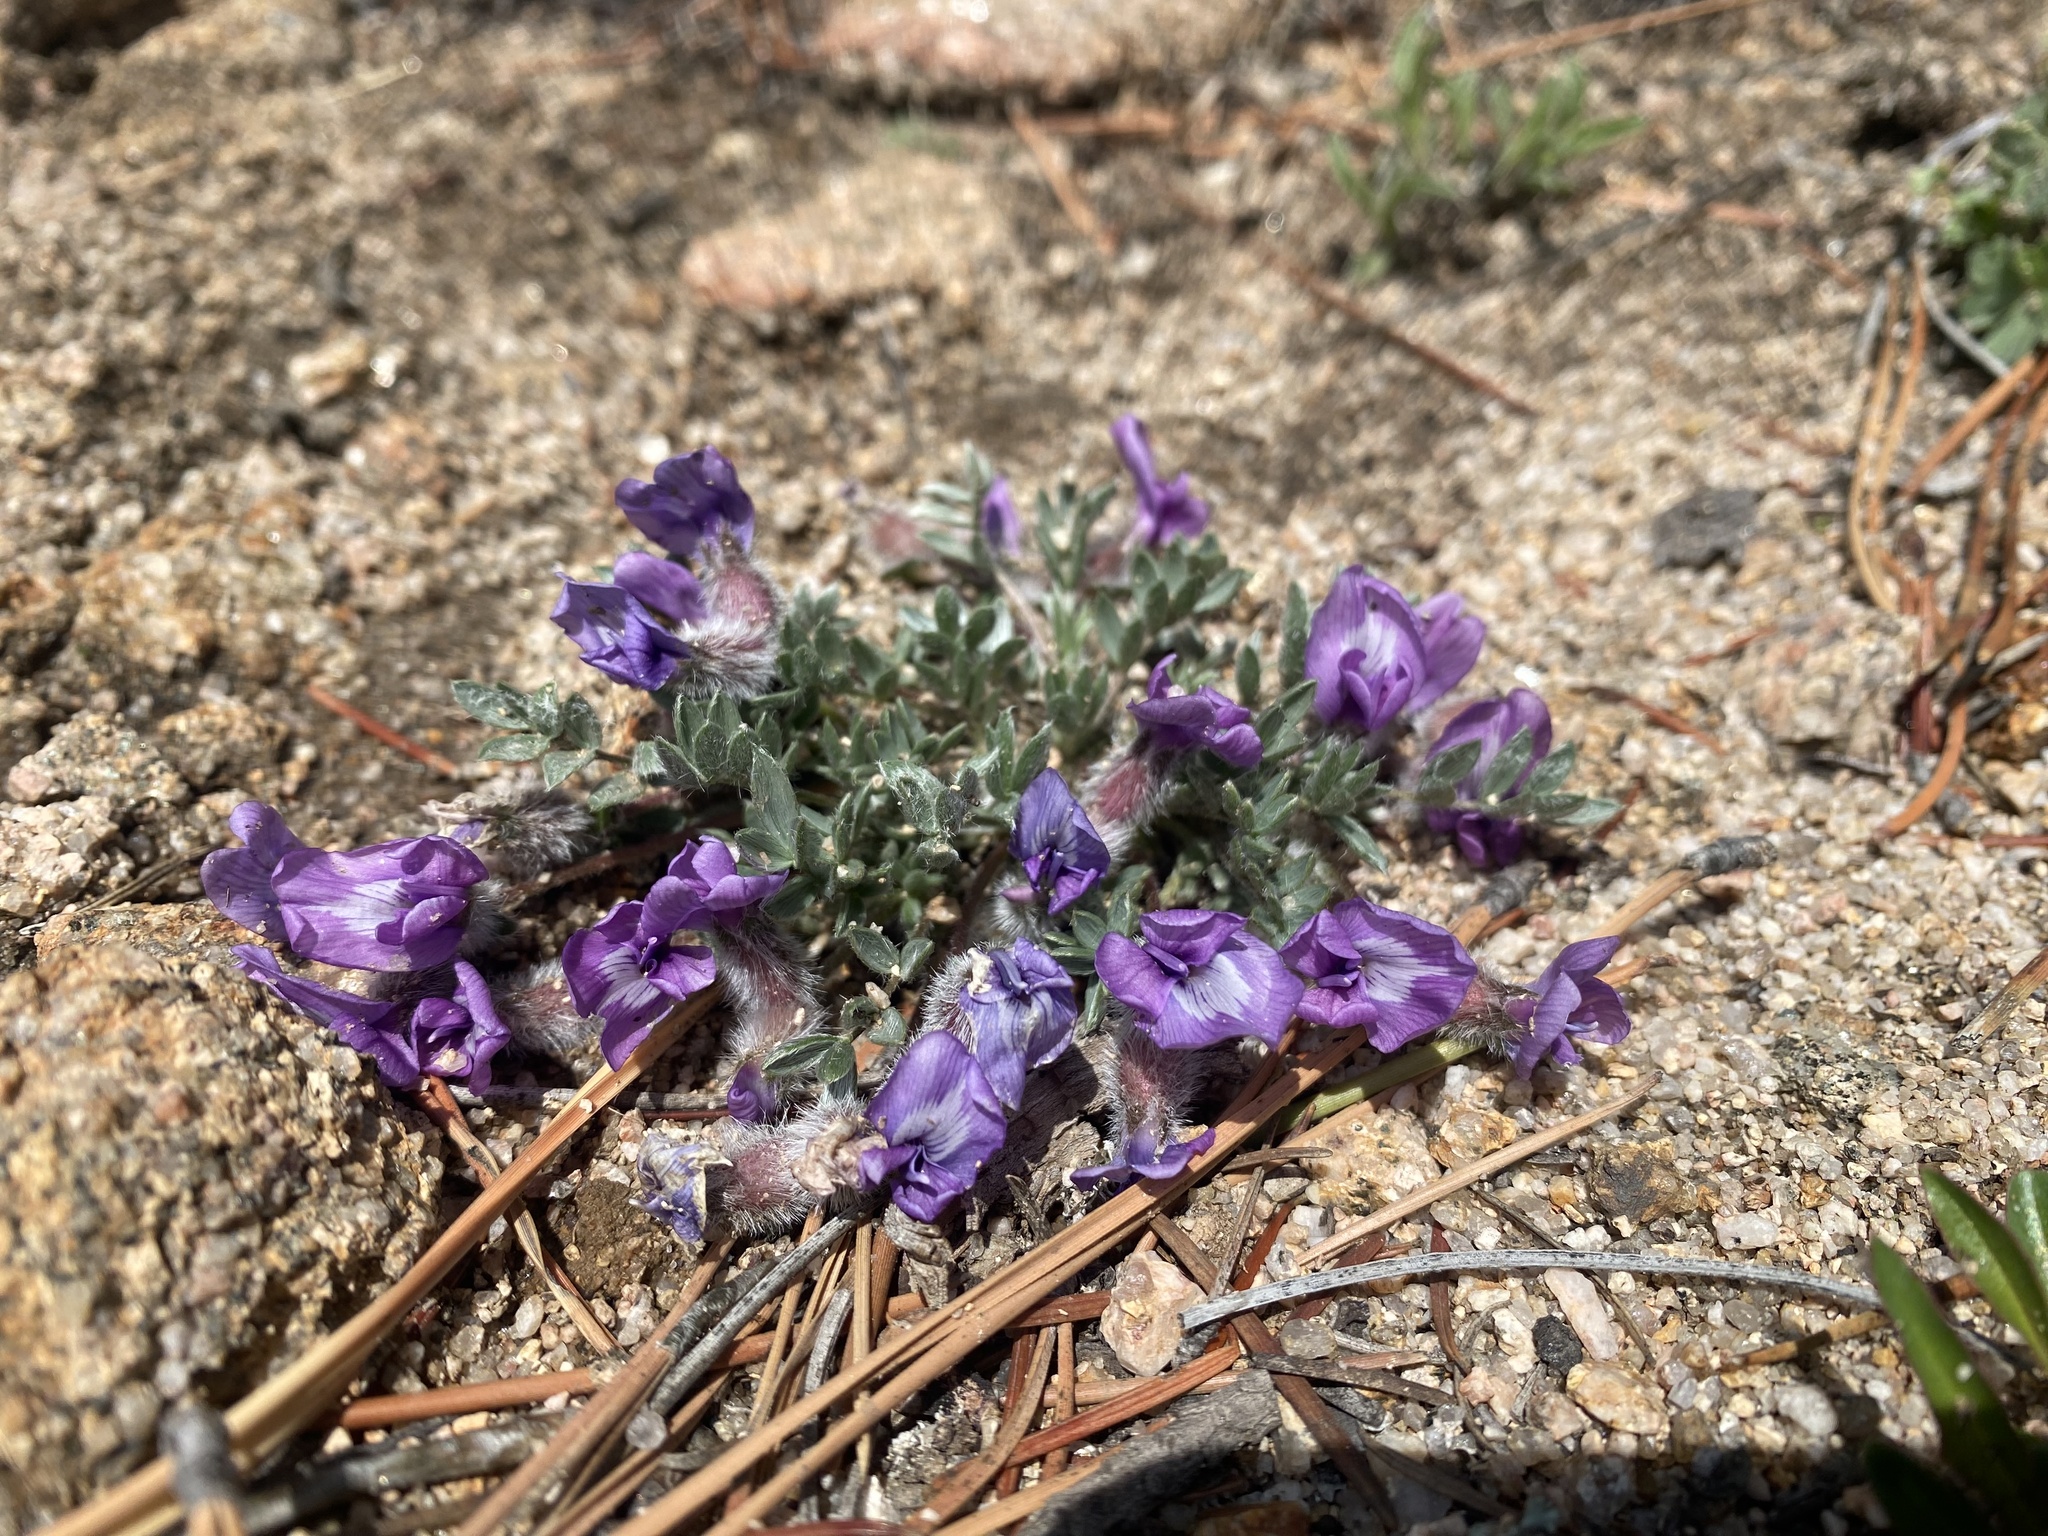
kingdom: Plantae
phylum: Tracheophyta
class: Magnoliopsida
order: Fabales
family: Fabaceae
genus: Oxytropis
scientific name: Oxytropis multiceps
